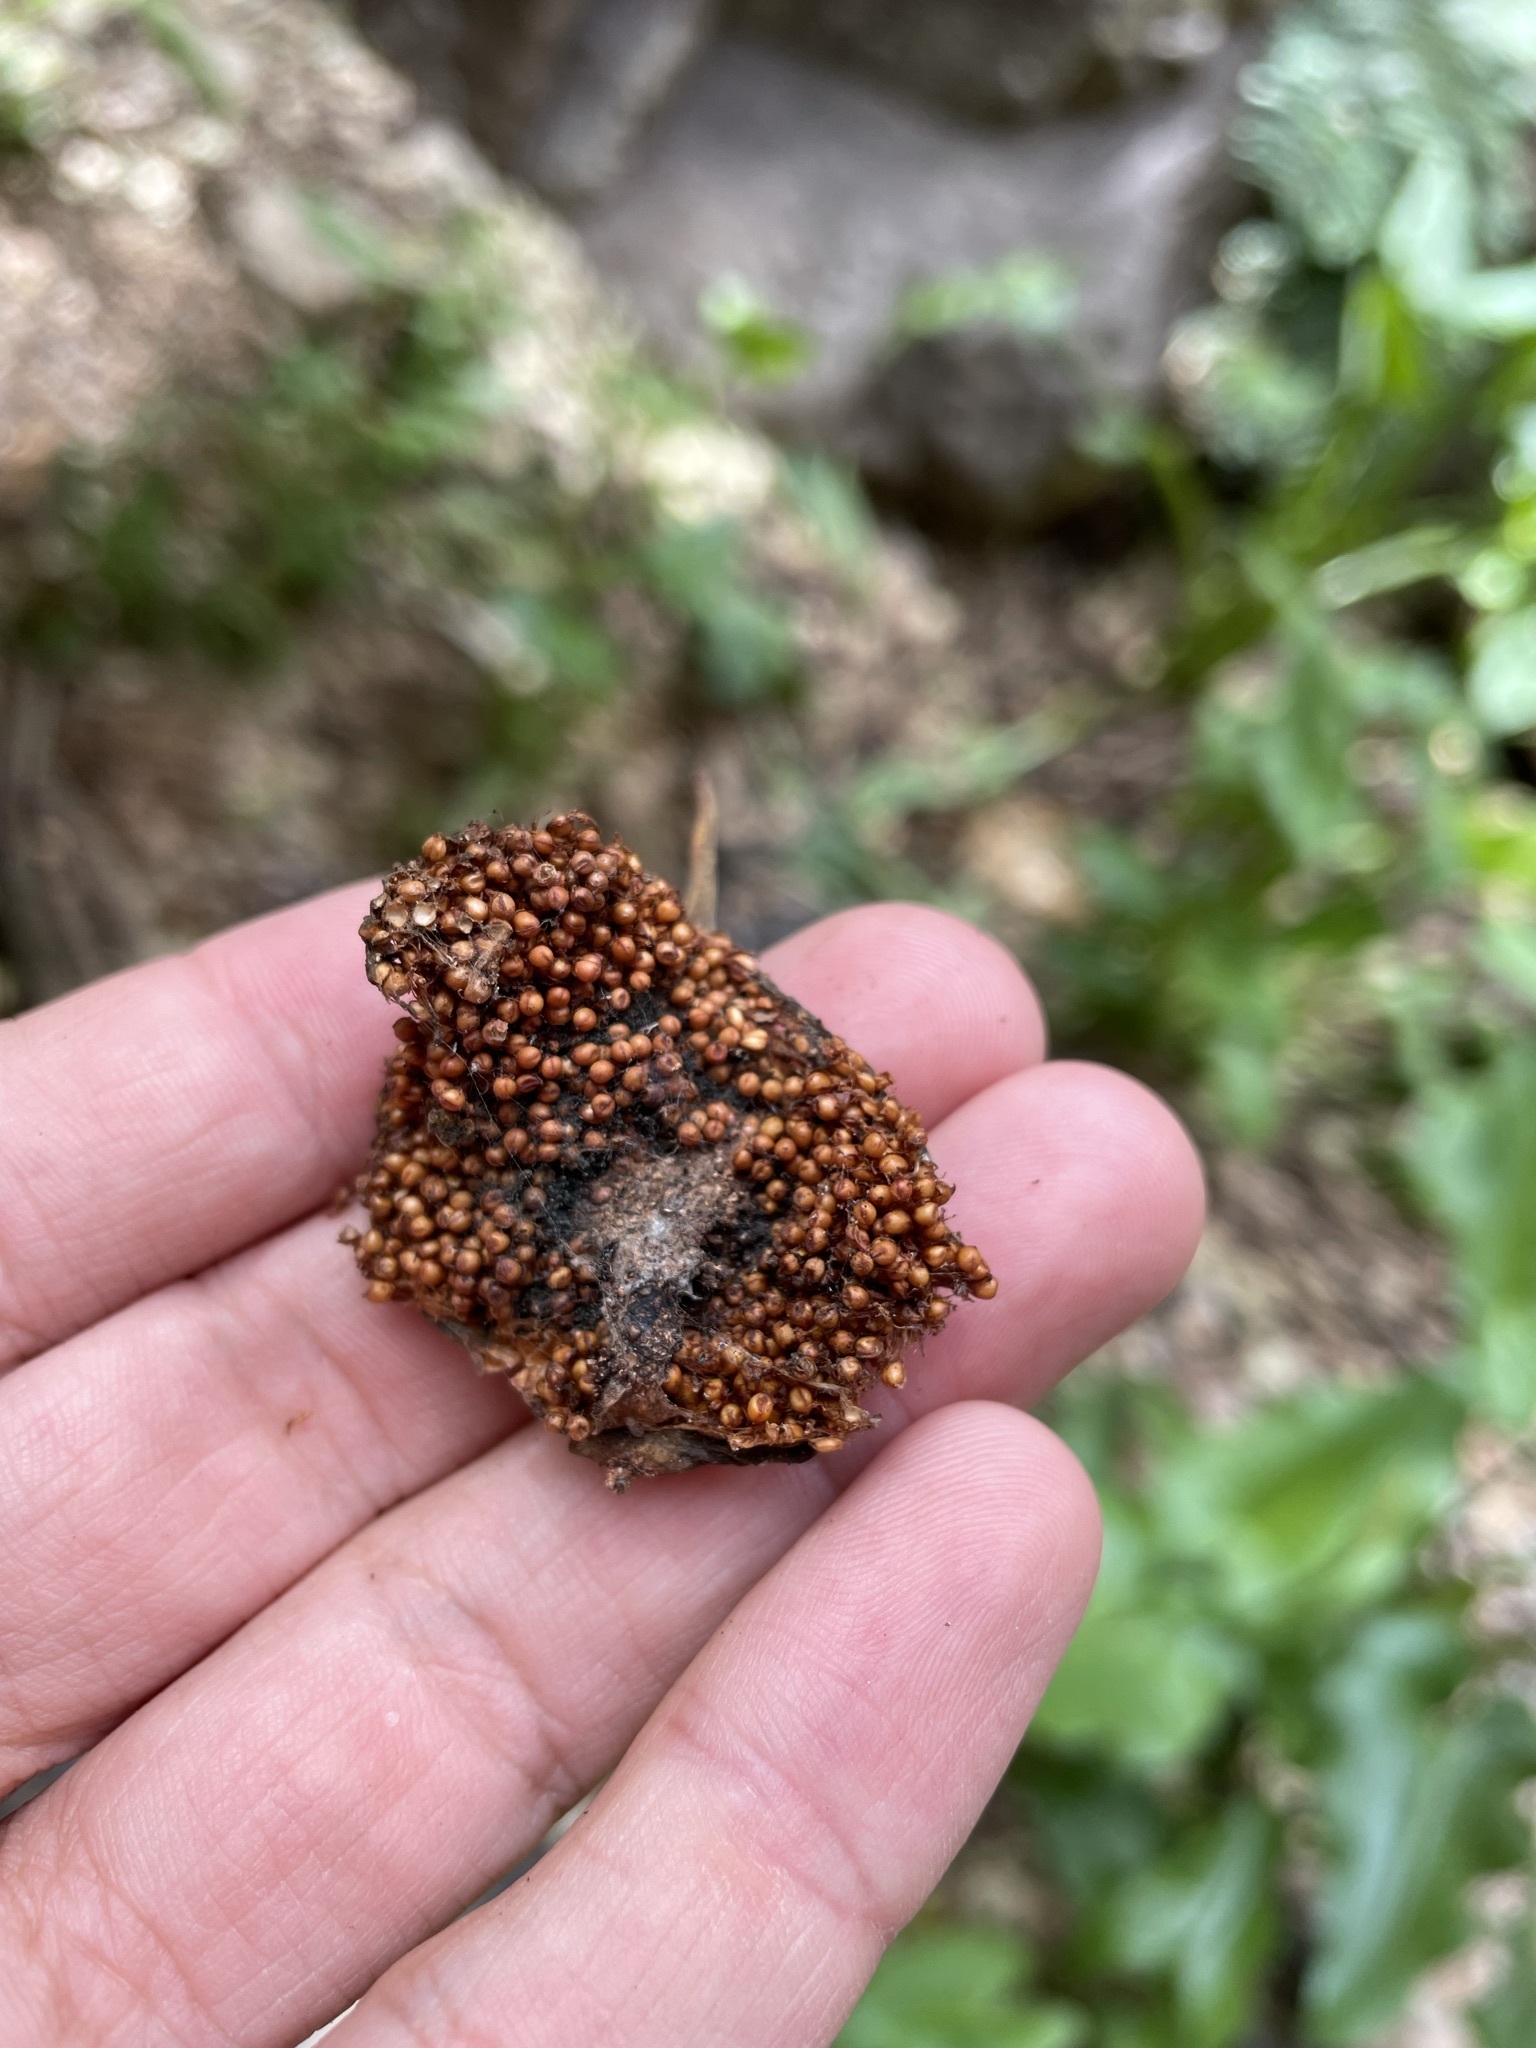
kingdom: Plantae
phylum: Tracheophyta
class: Magnoliopsida
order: Rosales
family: Moraceae
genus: Ficus
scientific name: Ficus sur
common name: Cape fig
